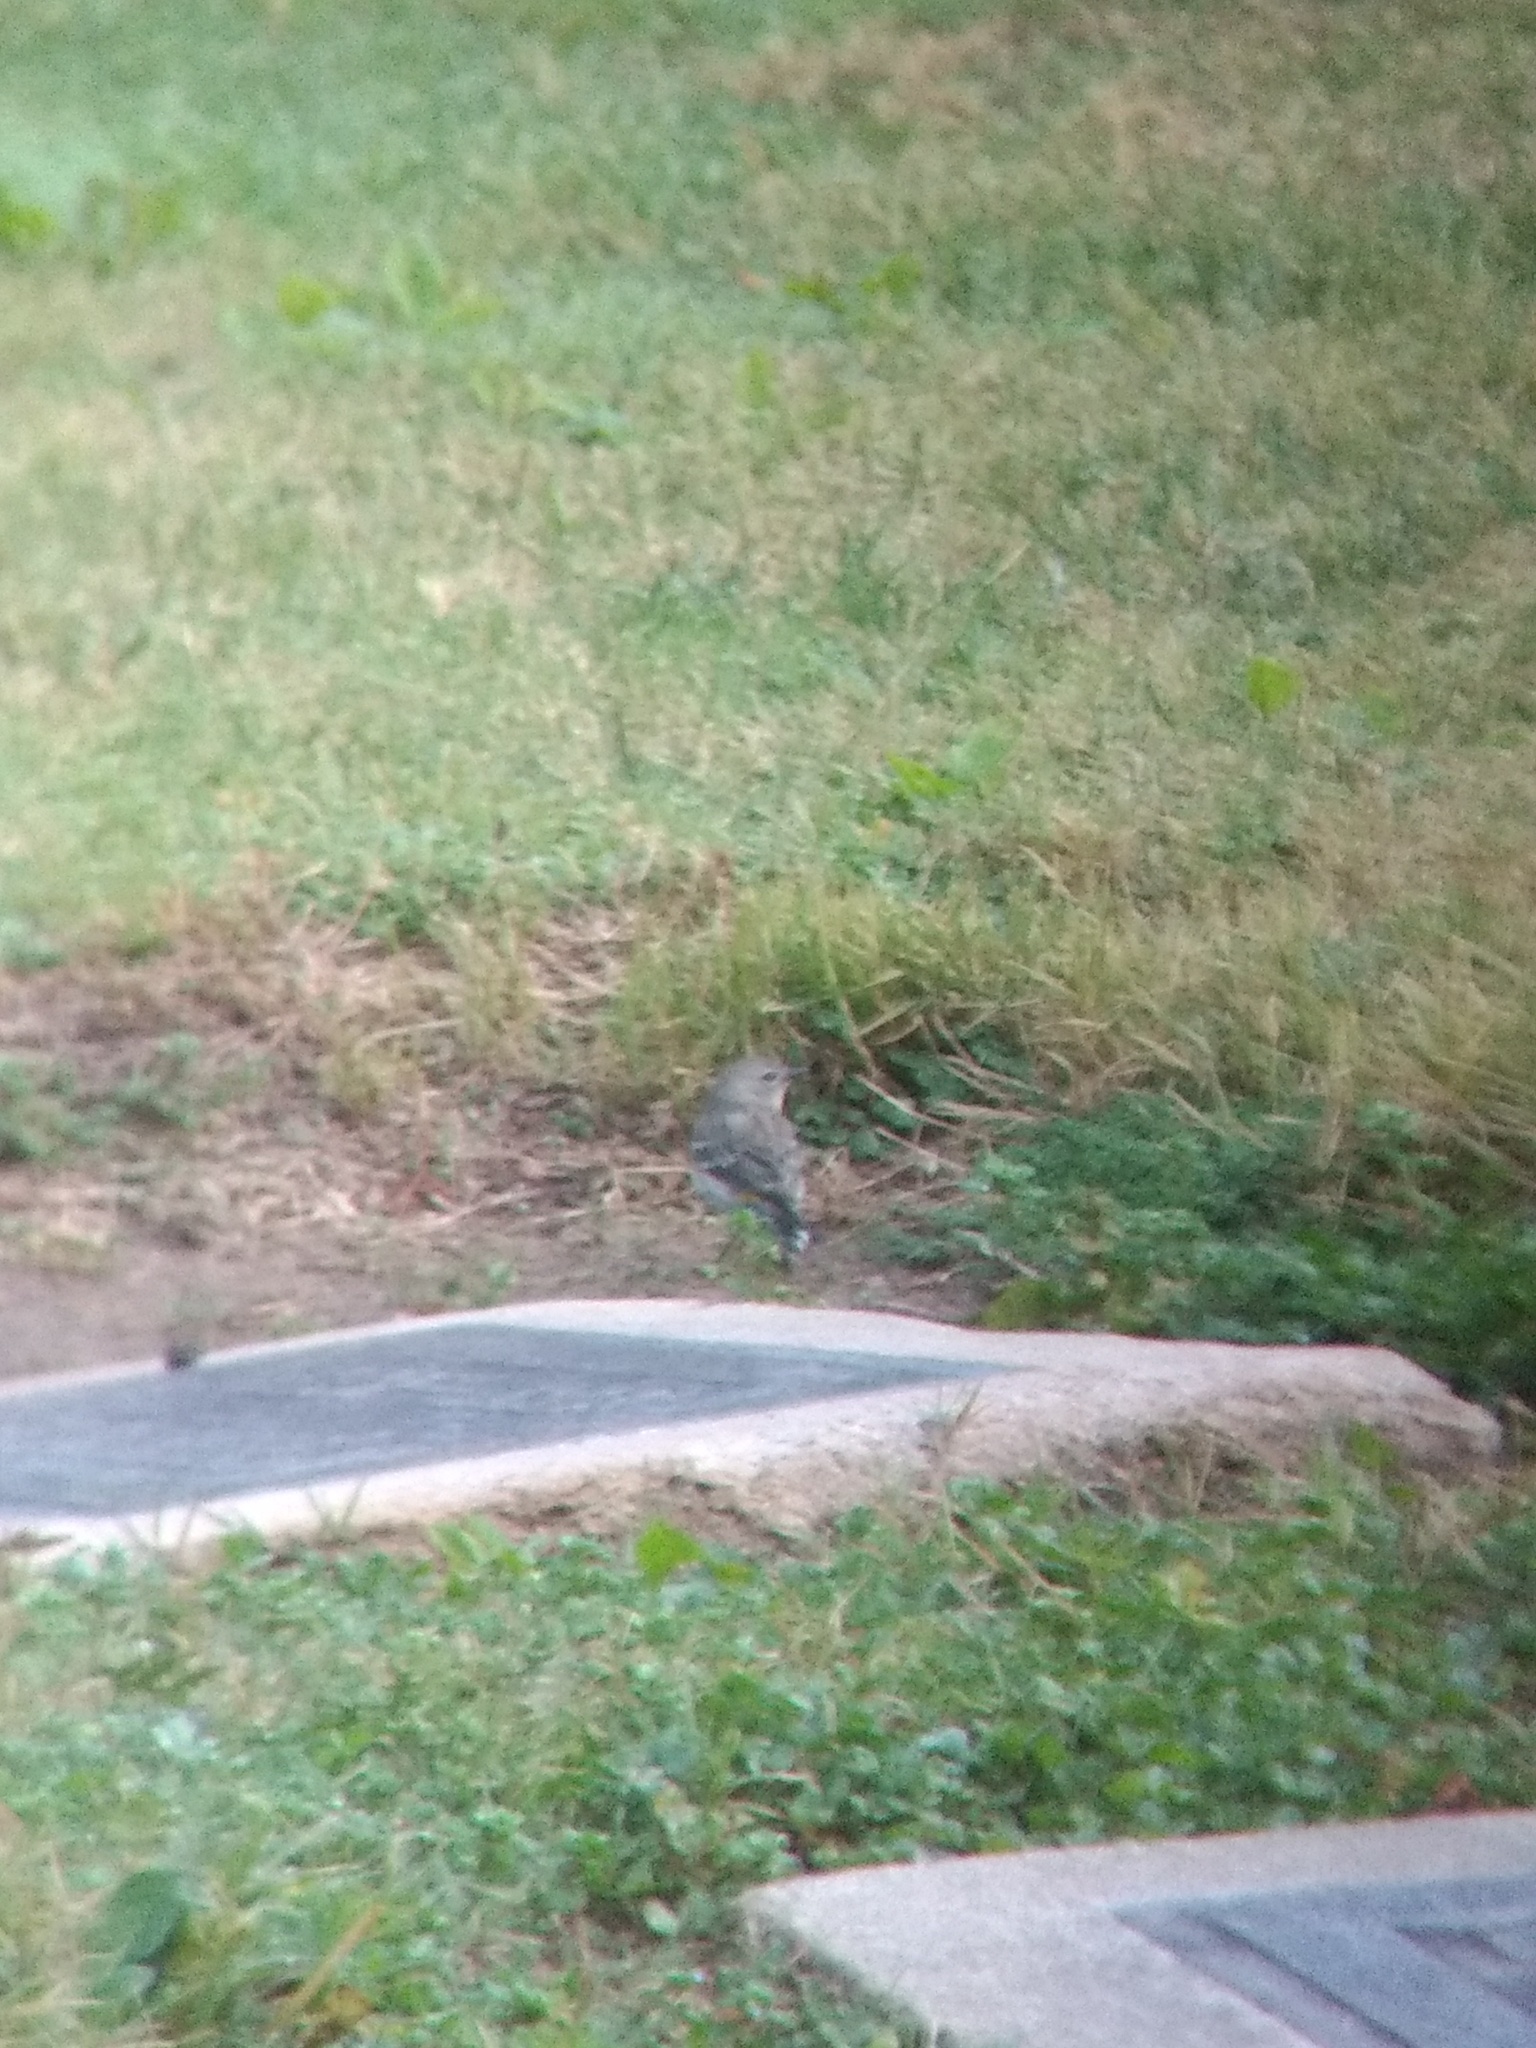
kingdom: Animalia
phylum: Chordata
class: Aves
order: Passeriformes
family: Parulidae
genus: Setophaga
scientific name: Setophaga coronata
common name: Myrtle warbler
